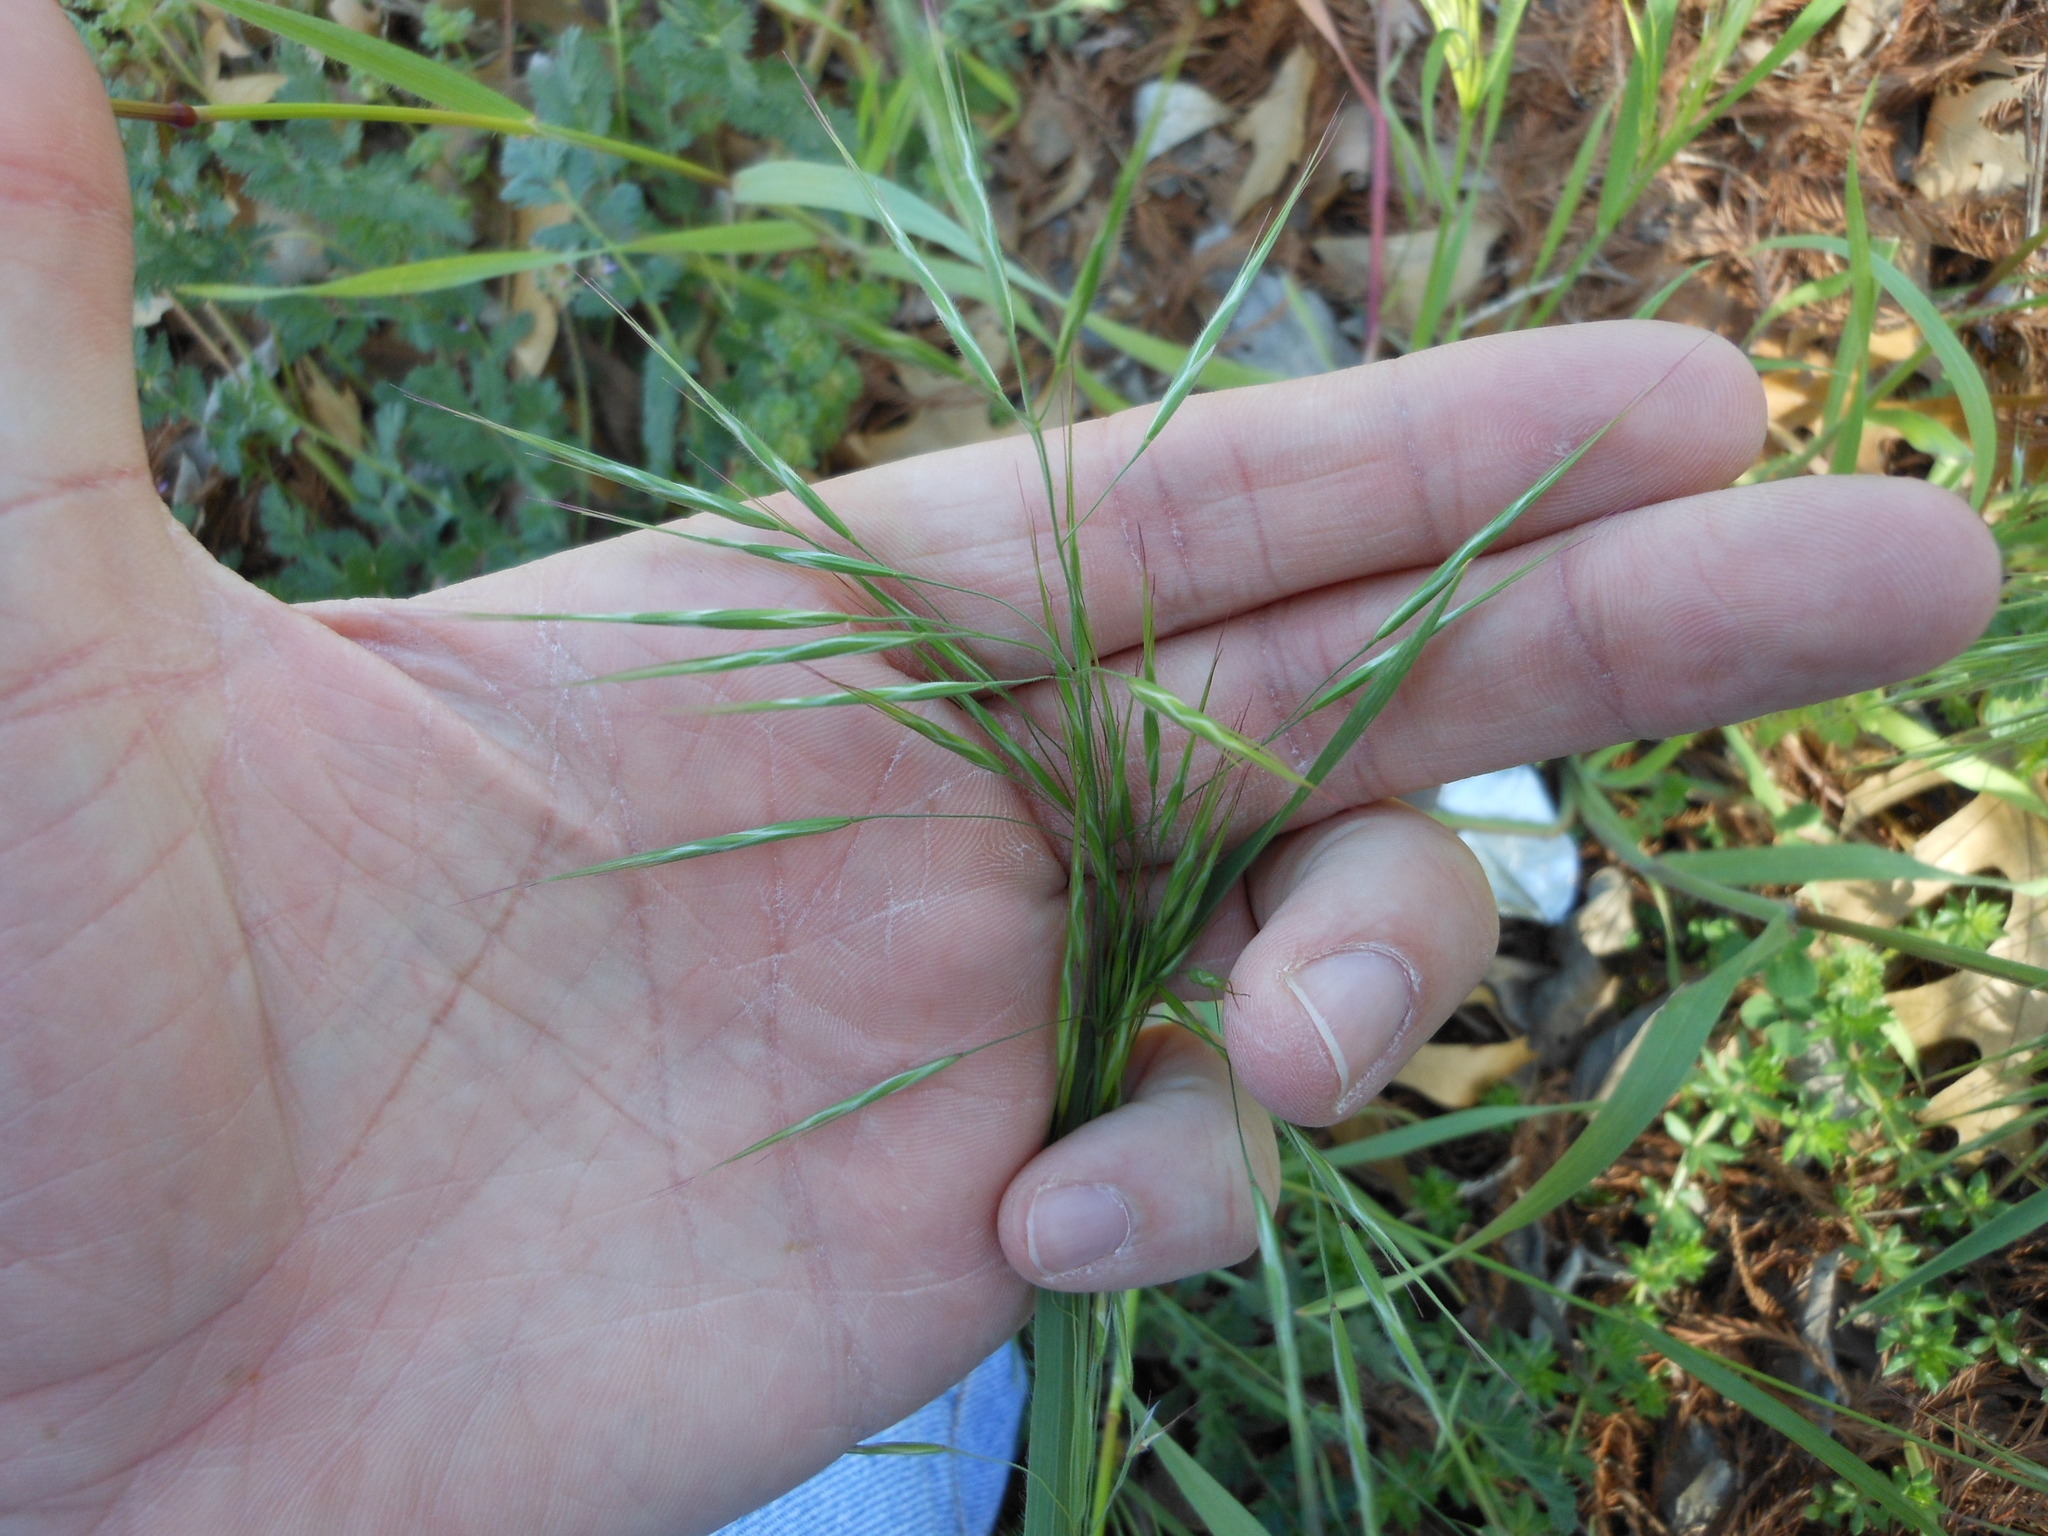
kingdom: Plantae
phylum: Tracheophyta
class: Liliopsida
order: Poales
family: Poaceae
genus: Bromus
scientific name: Bromus tectorum
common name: Cheatgrass
